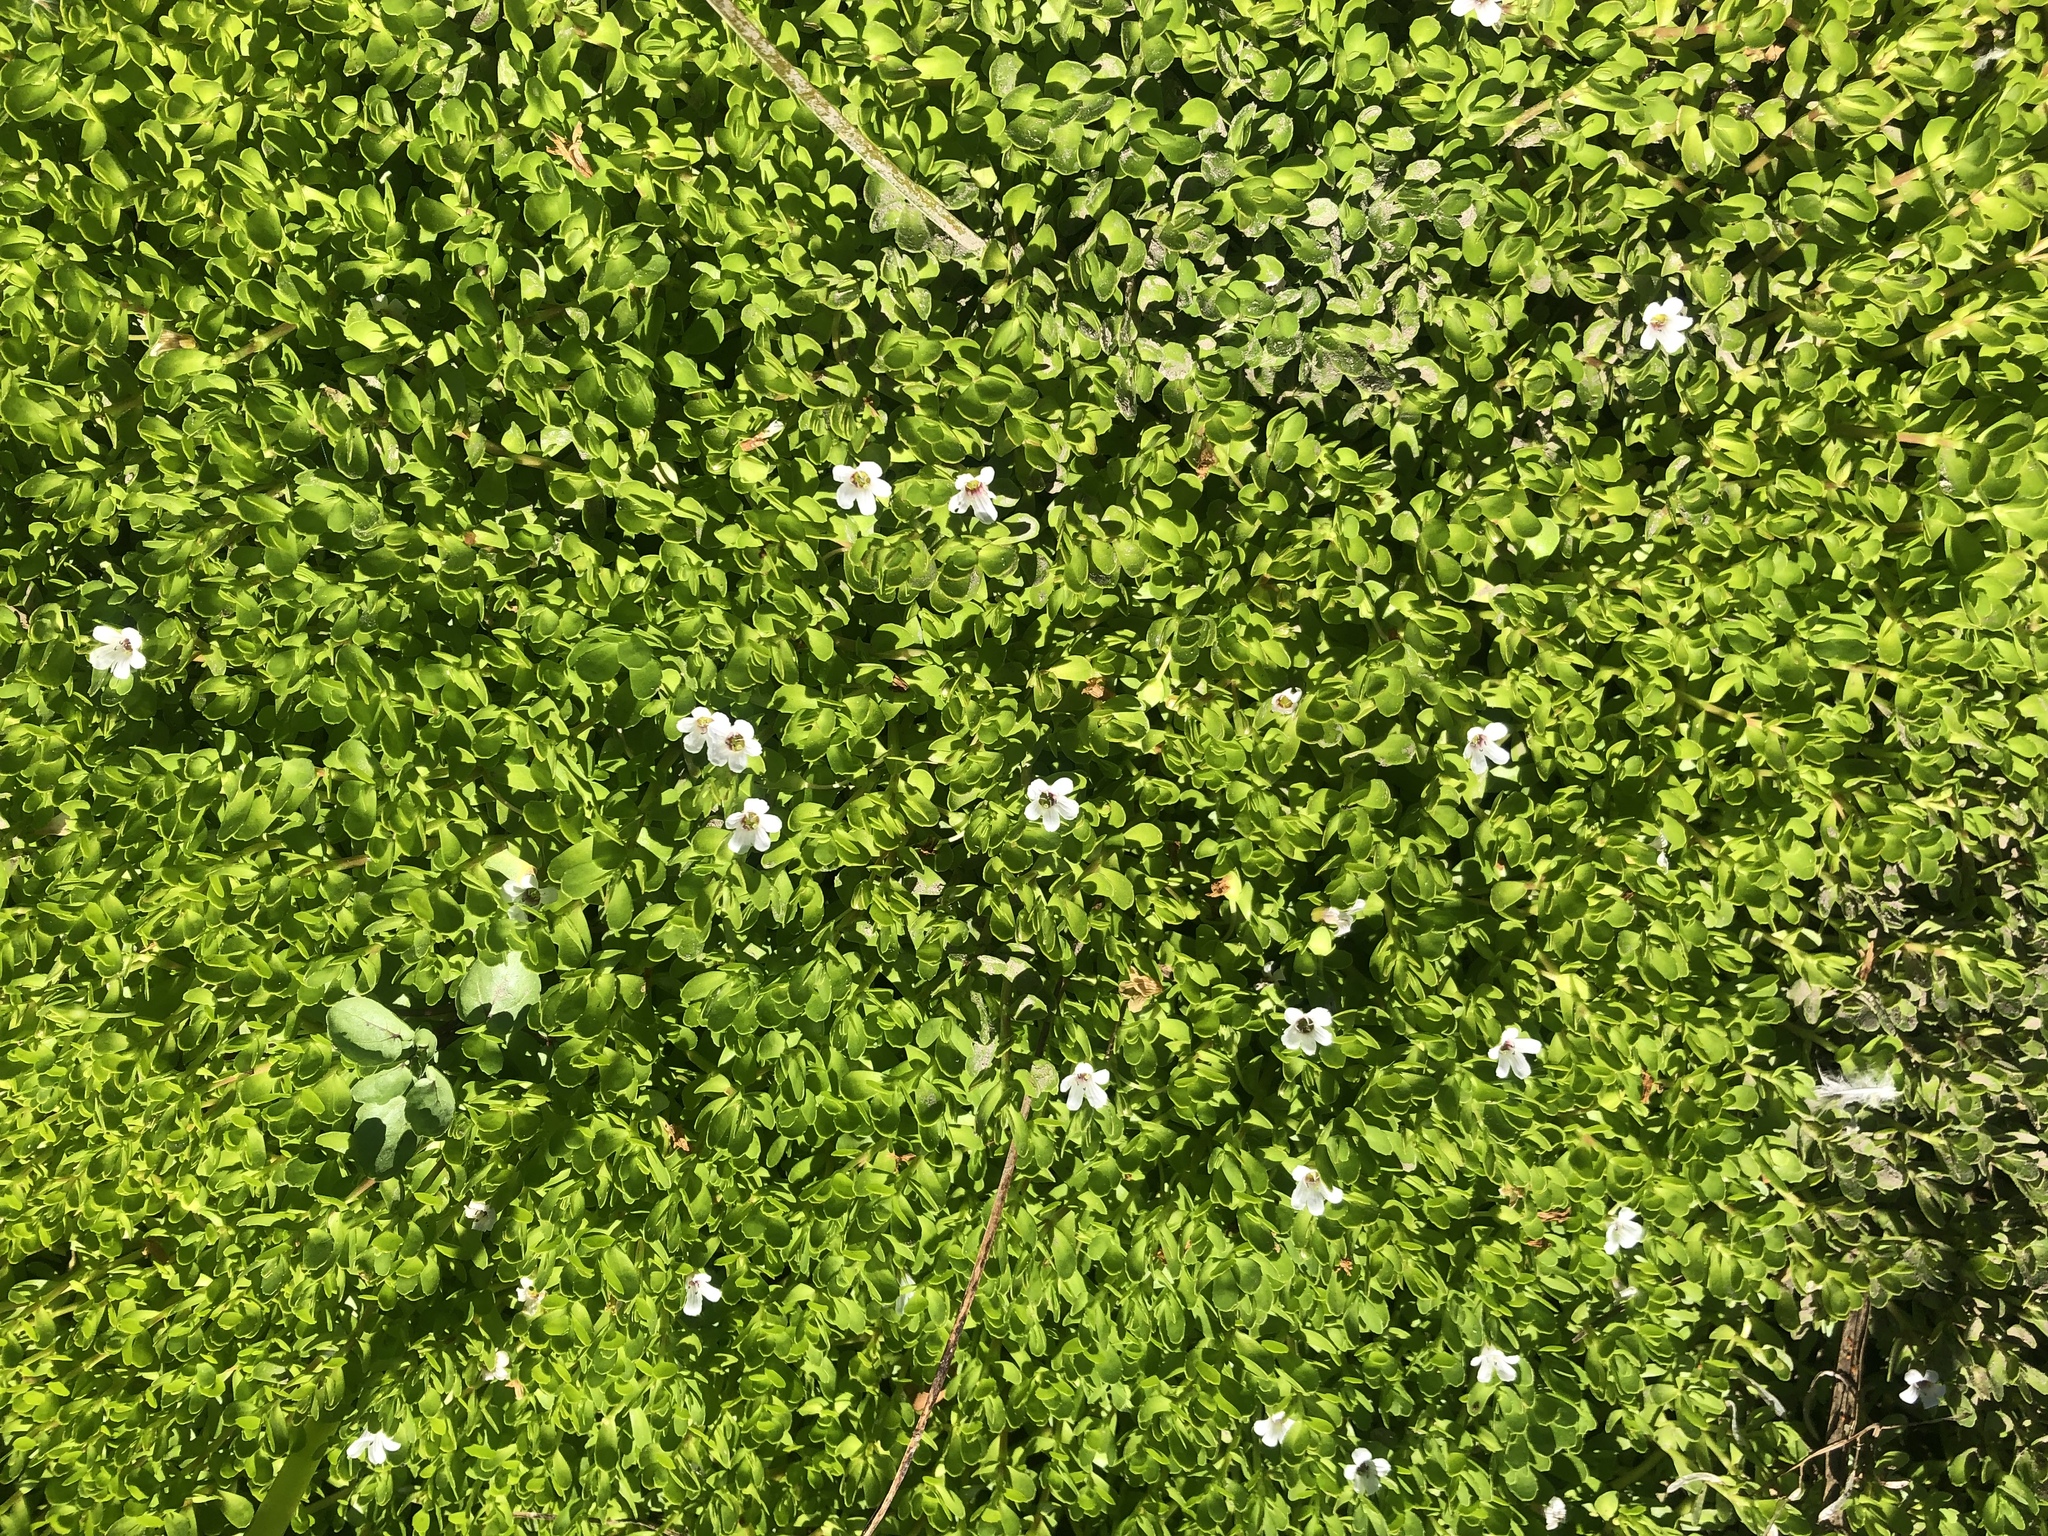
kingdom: Plantae
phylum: Tracheophyta
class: Magnoliopsida
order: Lamiales
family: Plantaginaceae
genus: Bacopa
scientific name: Bacopa monnieri
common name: Indian-pennywort
